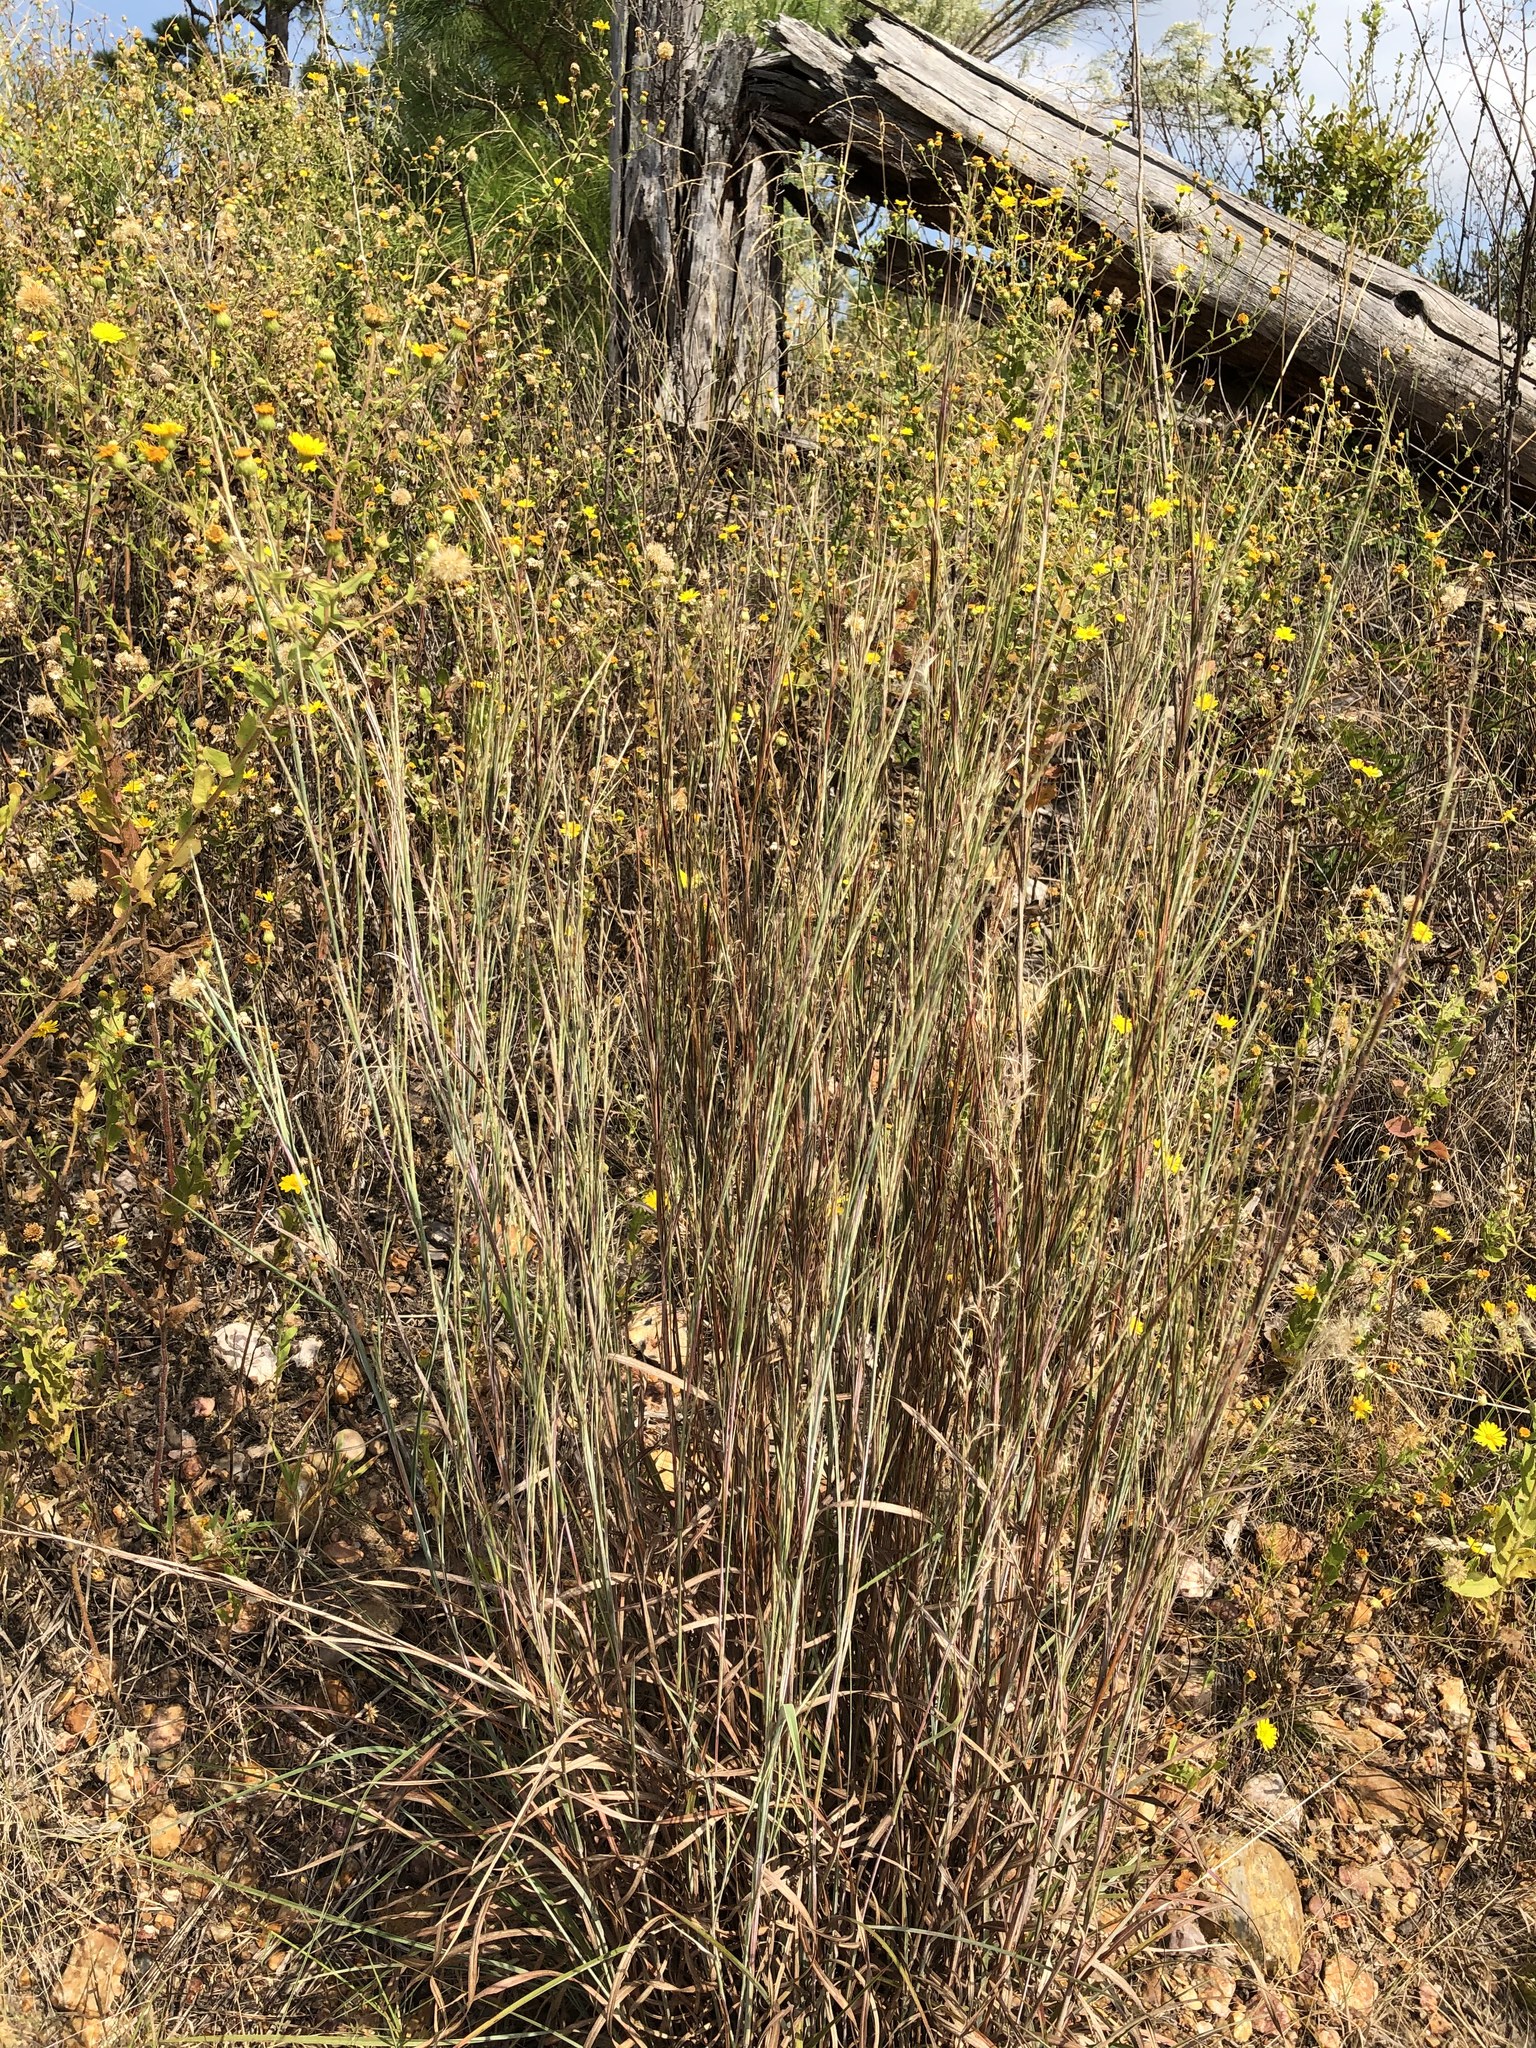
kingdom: Plantae
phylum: Tracheophyta
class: Liliopsida
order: Poales
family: Poaceae
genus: Schizachyrium
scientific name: Schizachyrium scoparium
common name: Little bluestem
